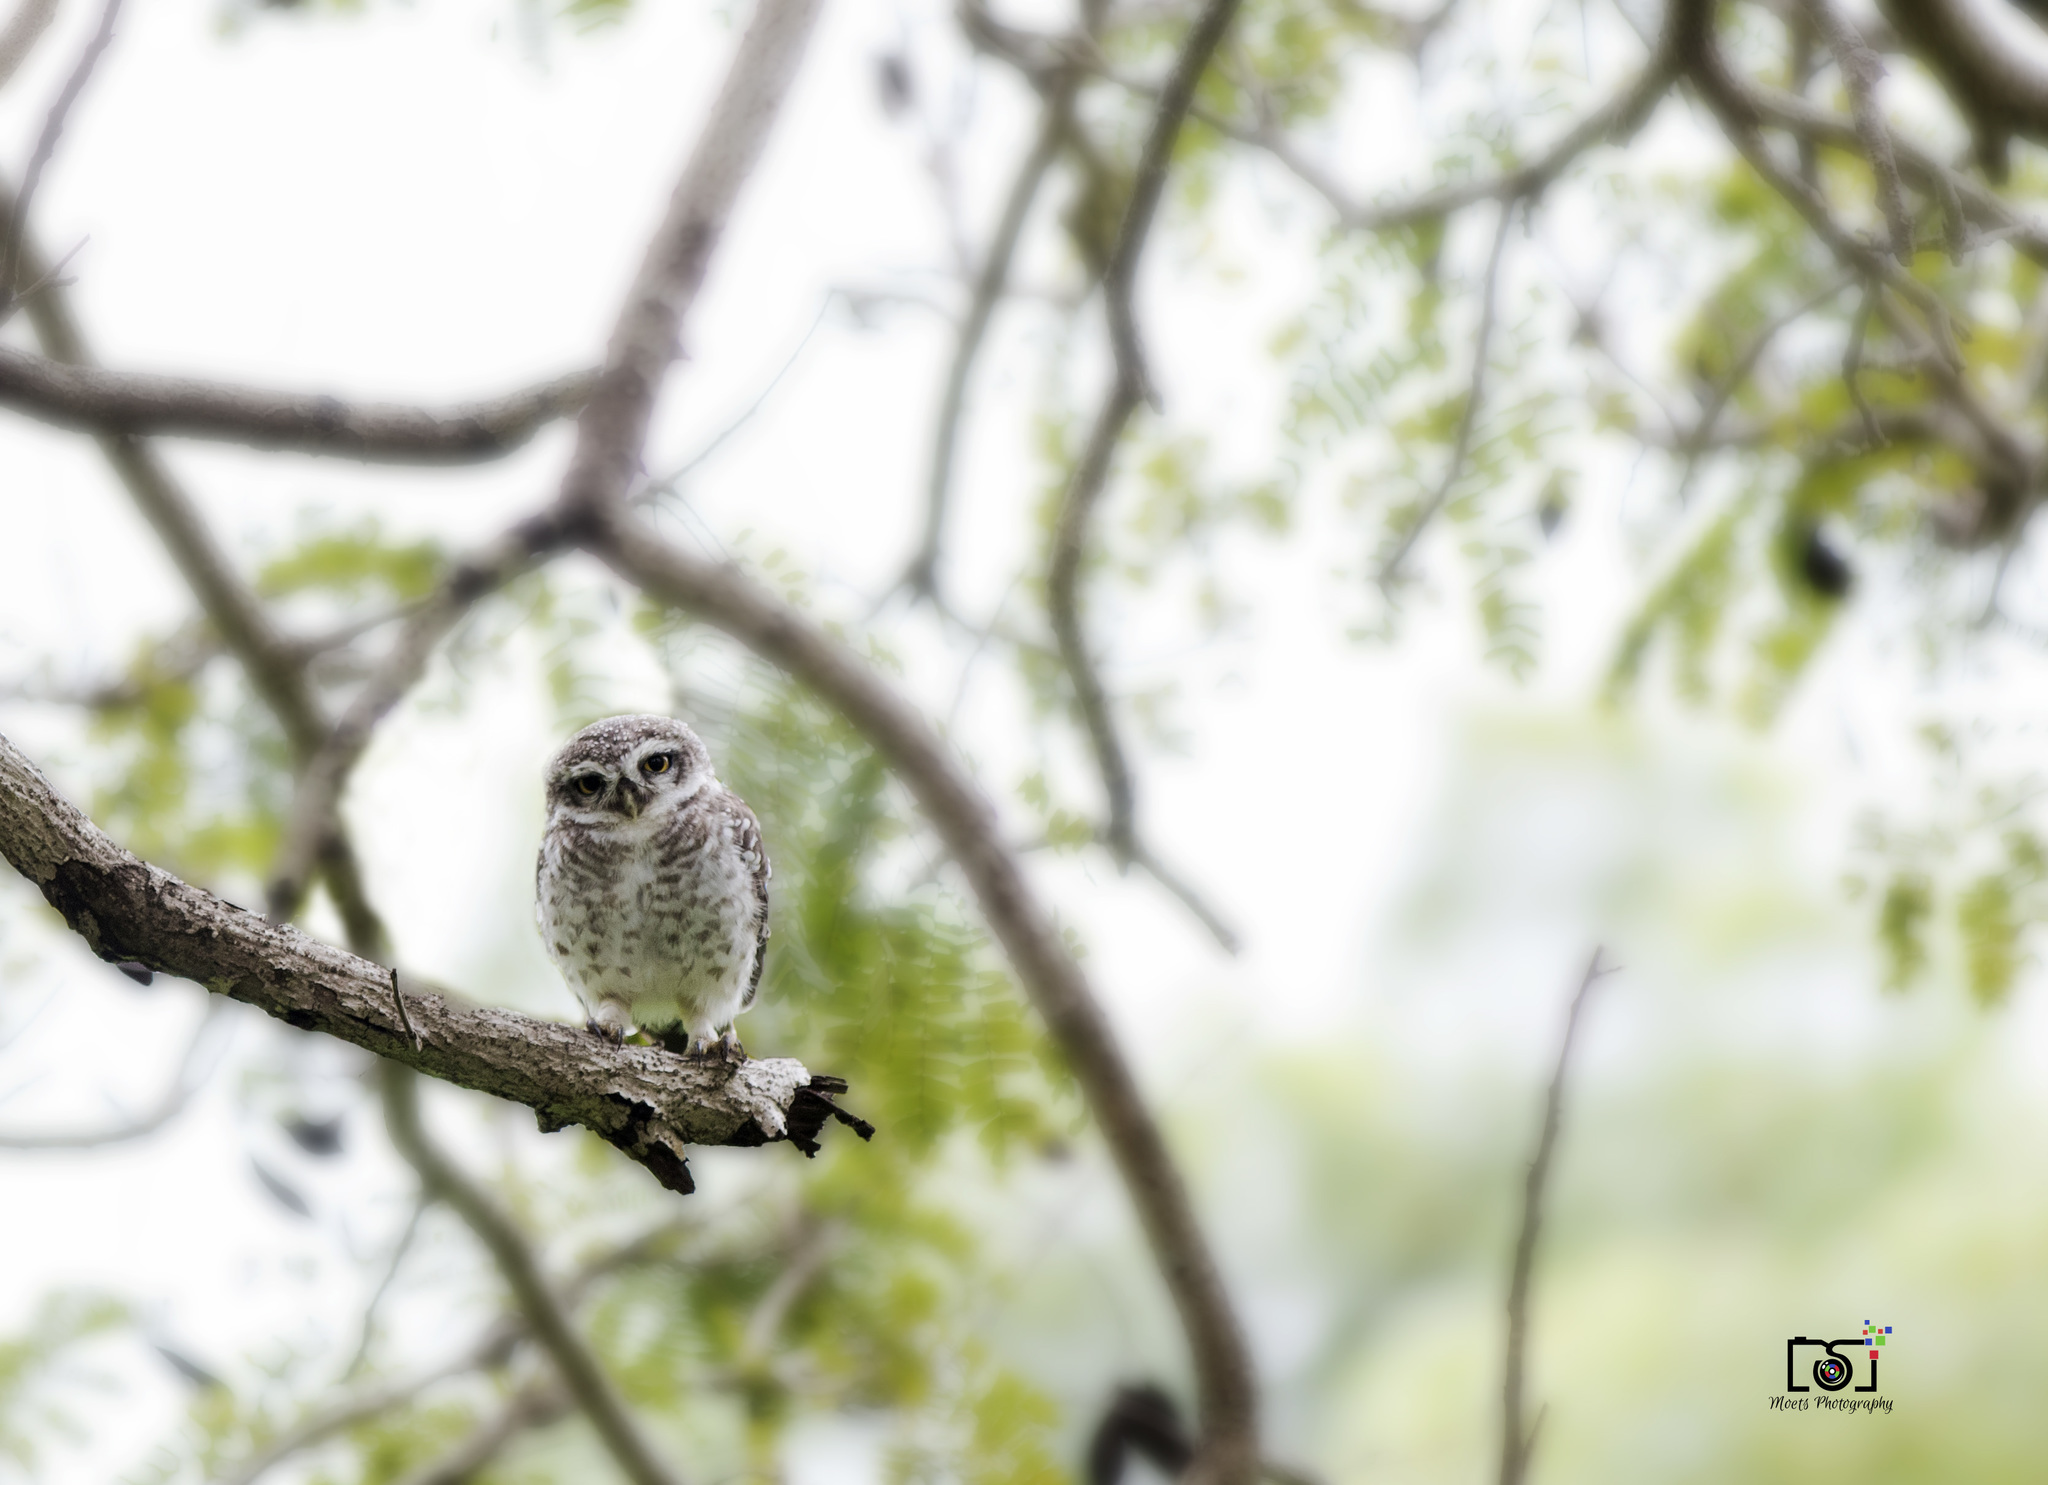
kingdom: Animalia
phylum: Chordata
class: Aves
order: Strigiformes
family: Strigidae
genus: Athene
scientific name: Athene brama
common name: Spotted owlet
